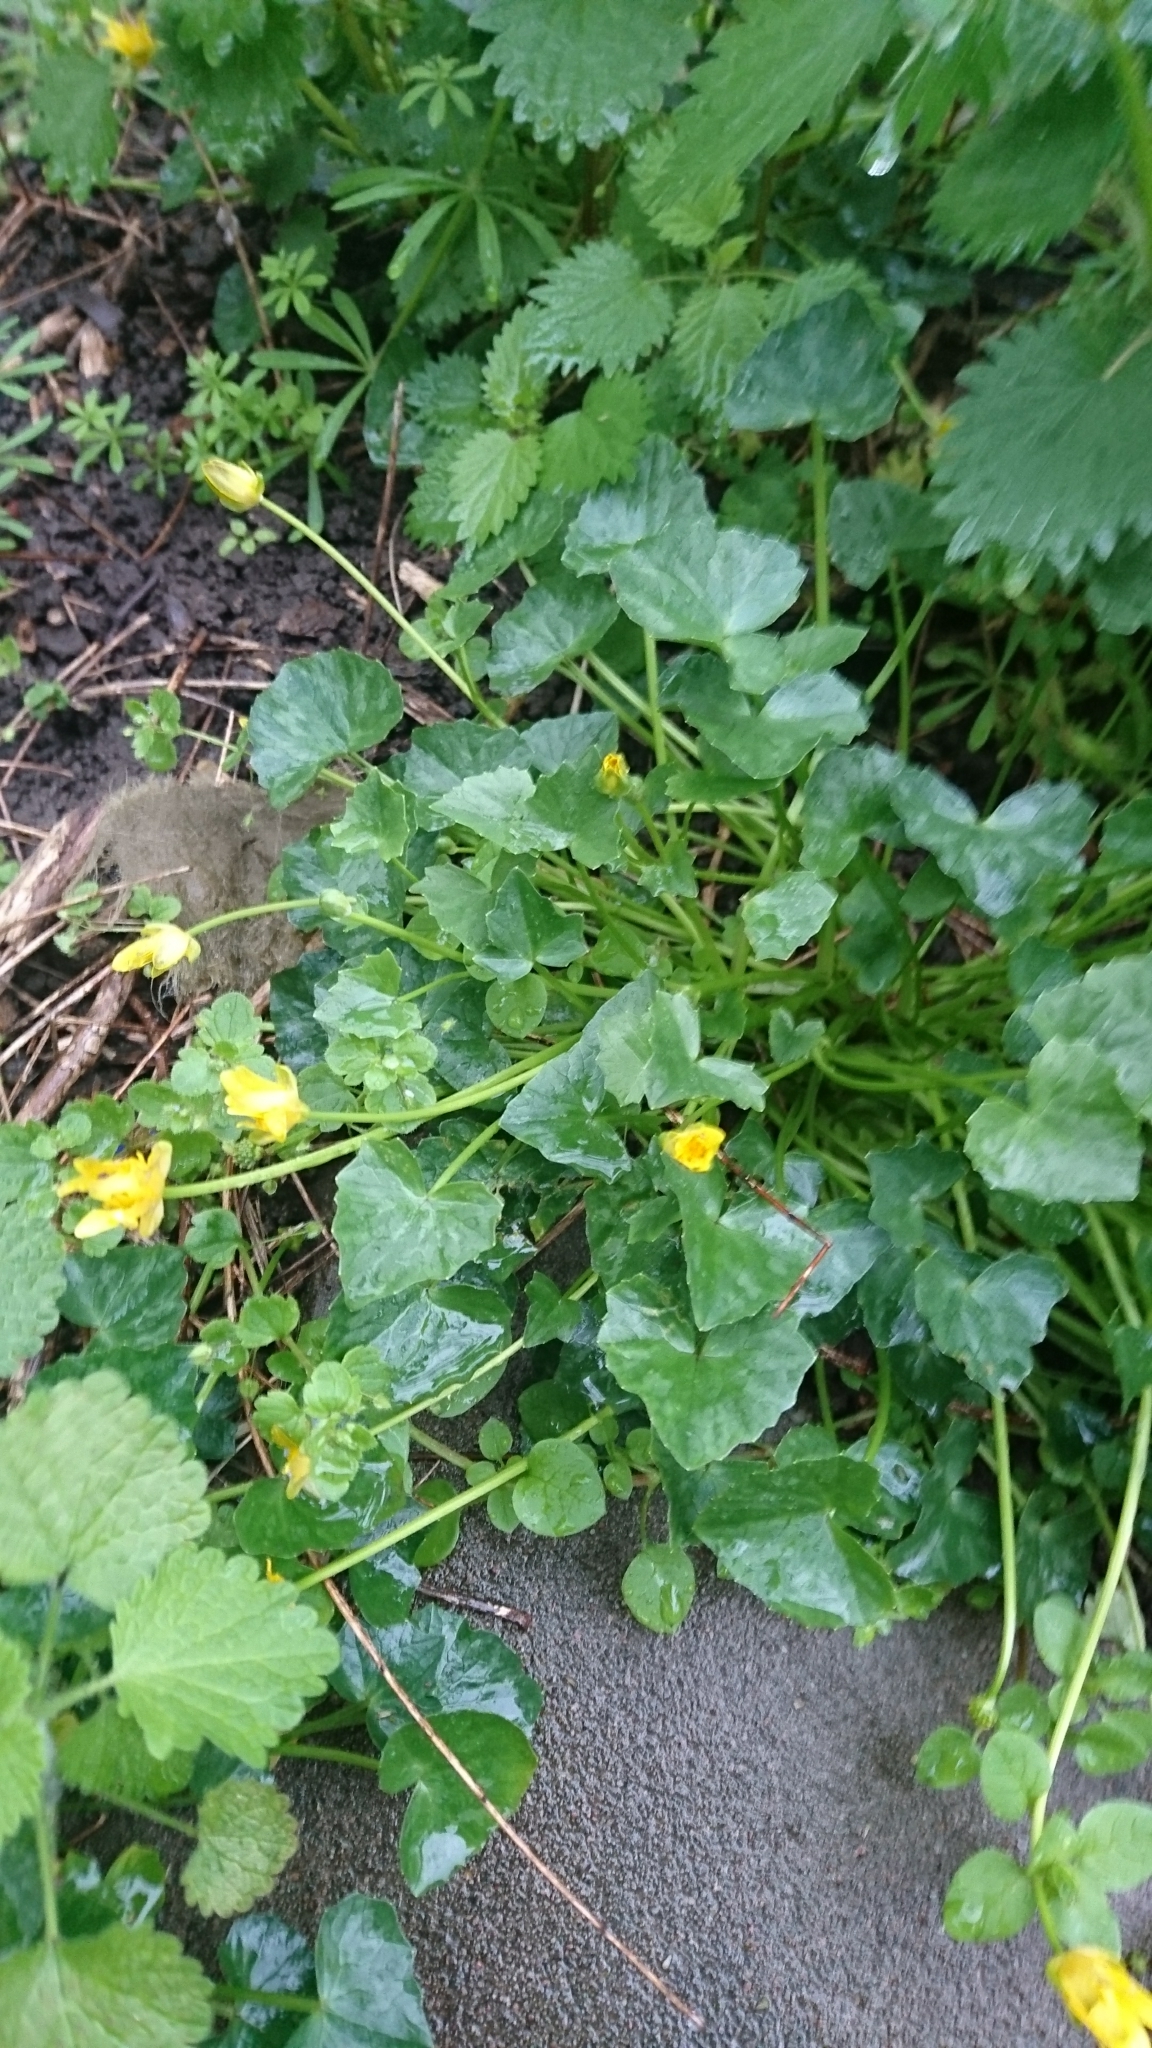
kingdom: Plantae
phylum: Tracheophyta
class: Magnoliopsida
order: Ranunculales
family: Ranunculaceae
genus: Ficaria
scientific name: Ficaria verna
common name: Lesser celandine
